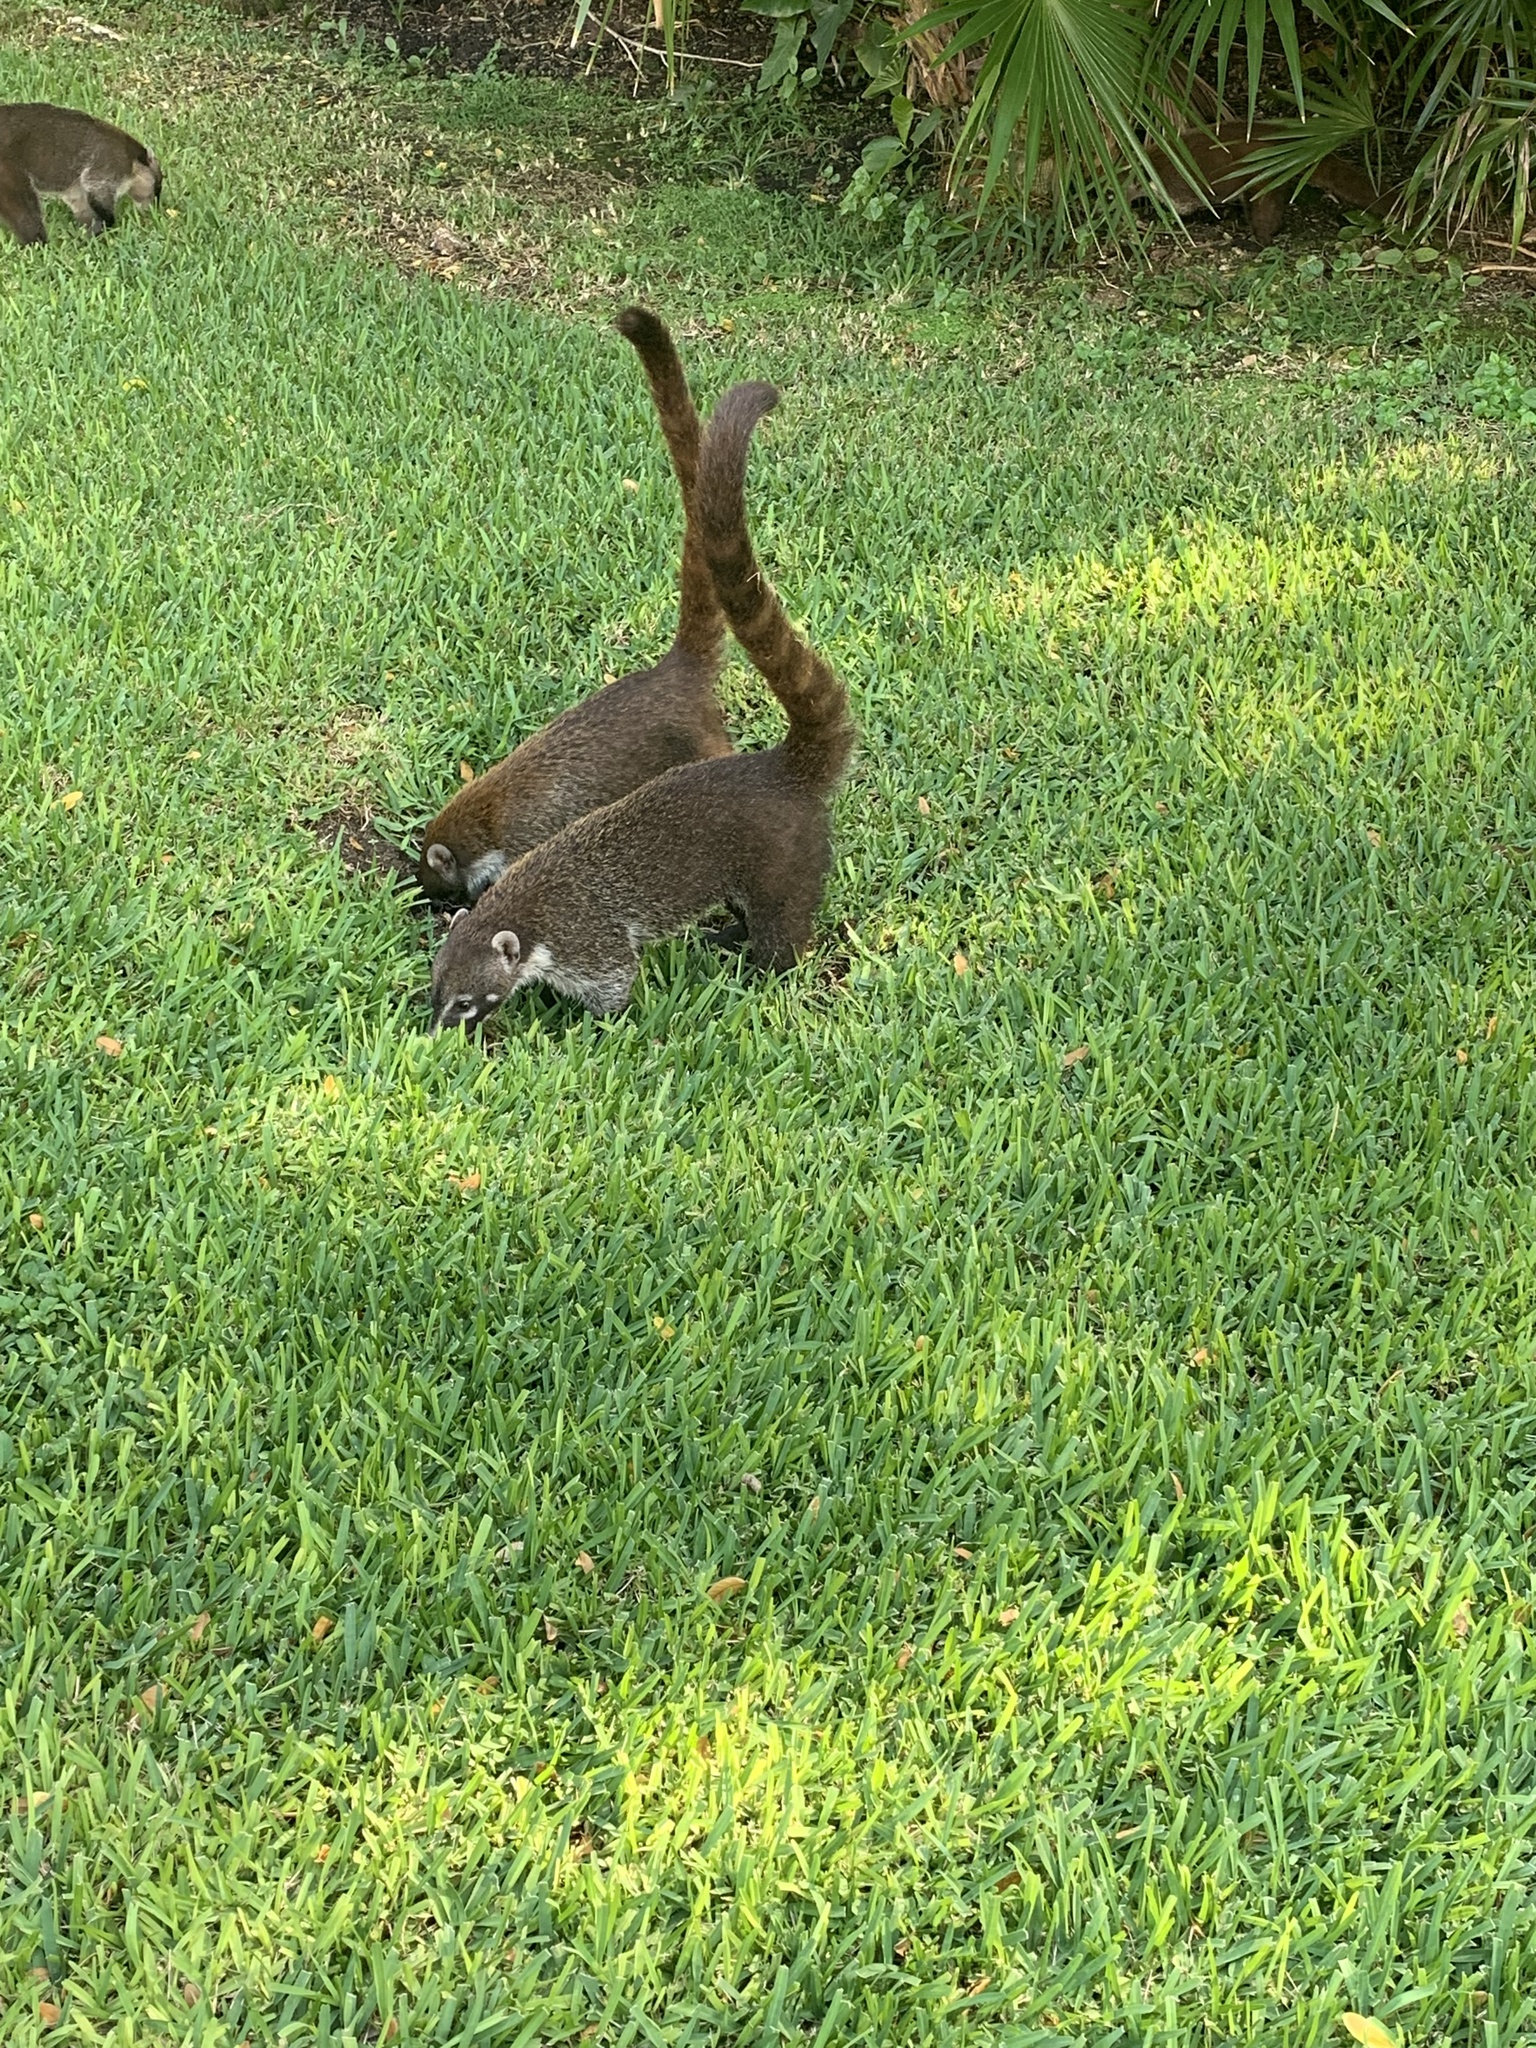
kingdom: Animalia
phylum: Chordata
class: Mammalia
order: Carnivora
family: Procyonidae
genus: Nasua
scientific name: Nasua narica
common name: White-nosed coati
